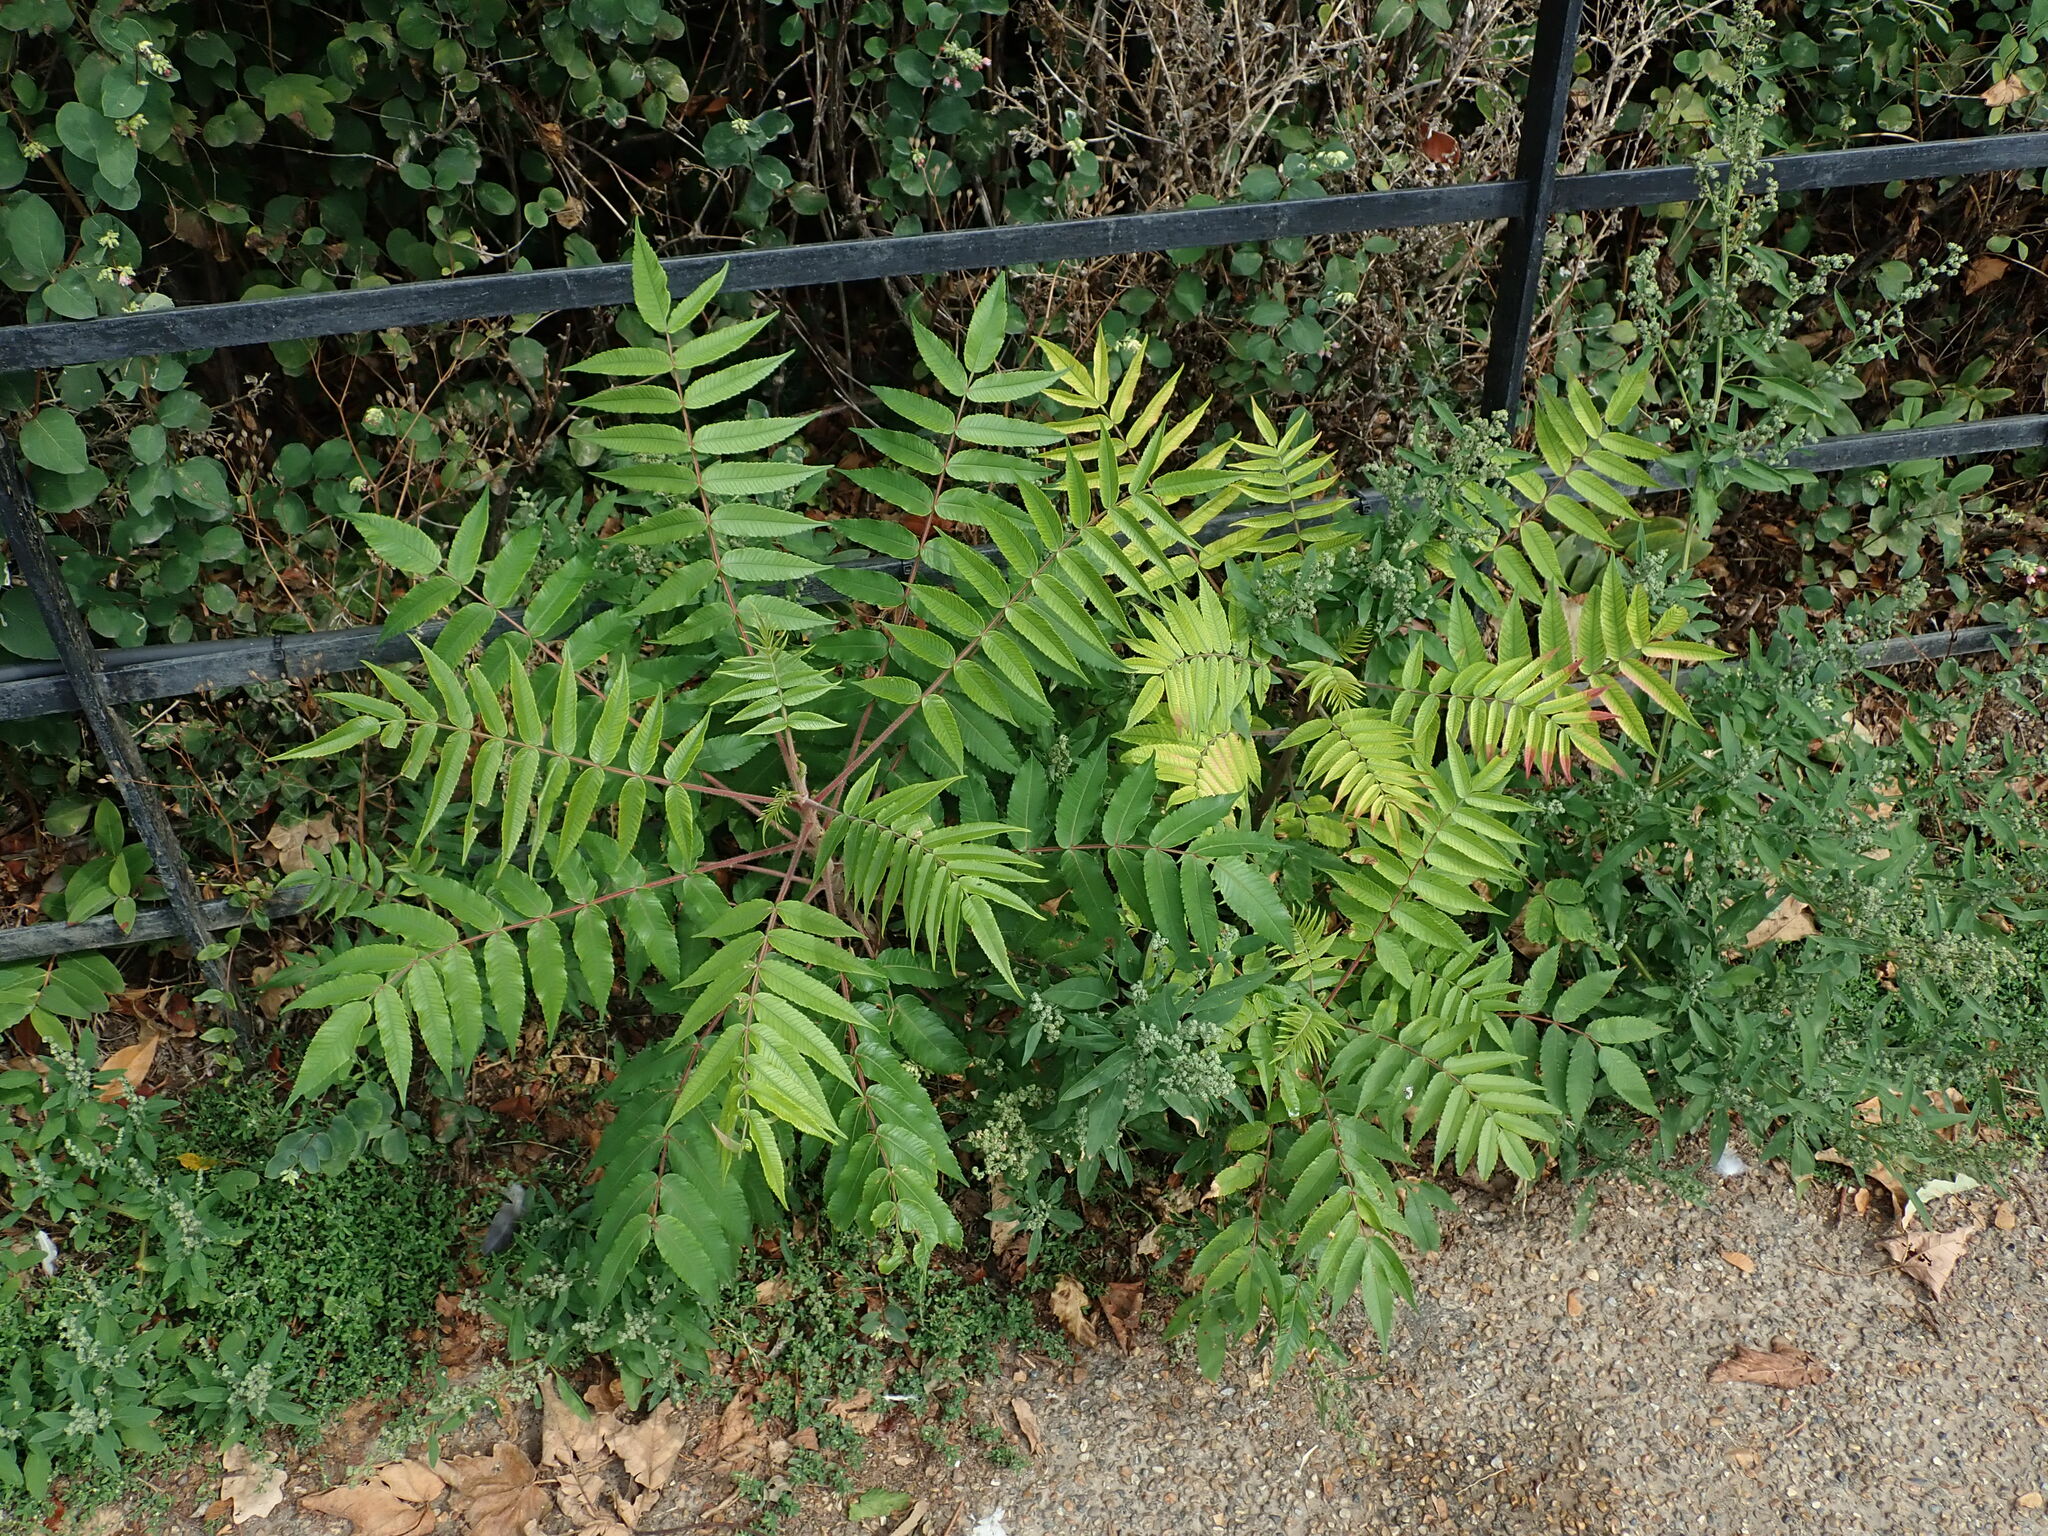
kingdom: Plantae
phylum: Tracheophyta
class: Magnoliopsida
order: Sapindales
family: Anacardiaceae
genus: Rhus
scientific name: Rhus typhina
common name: Staghorn sumac
